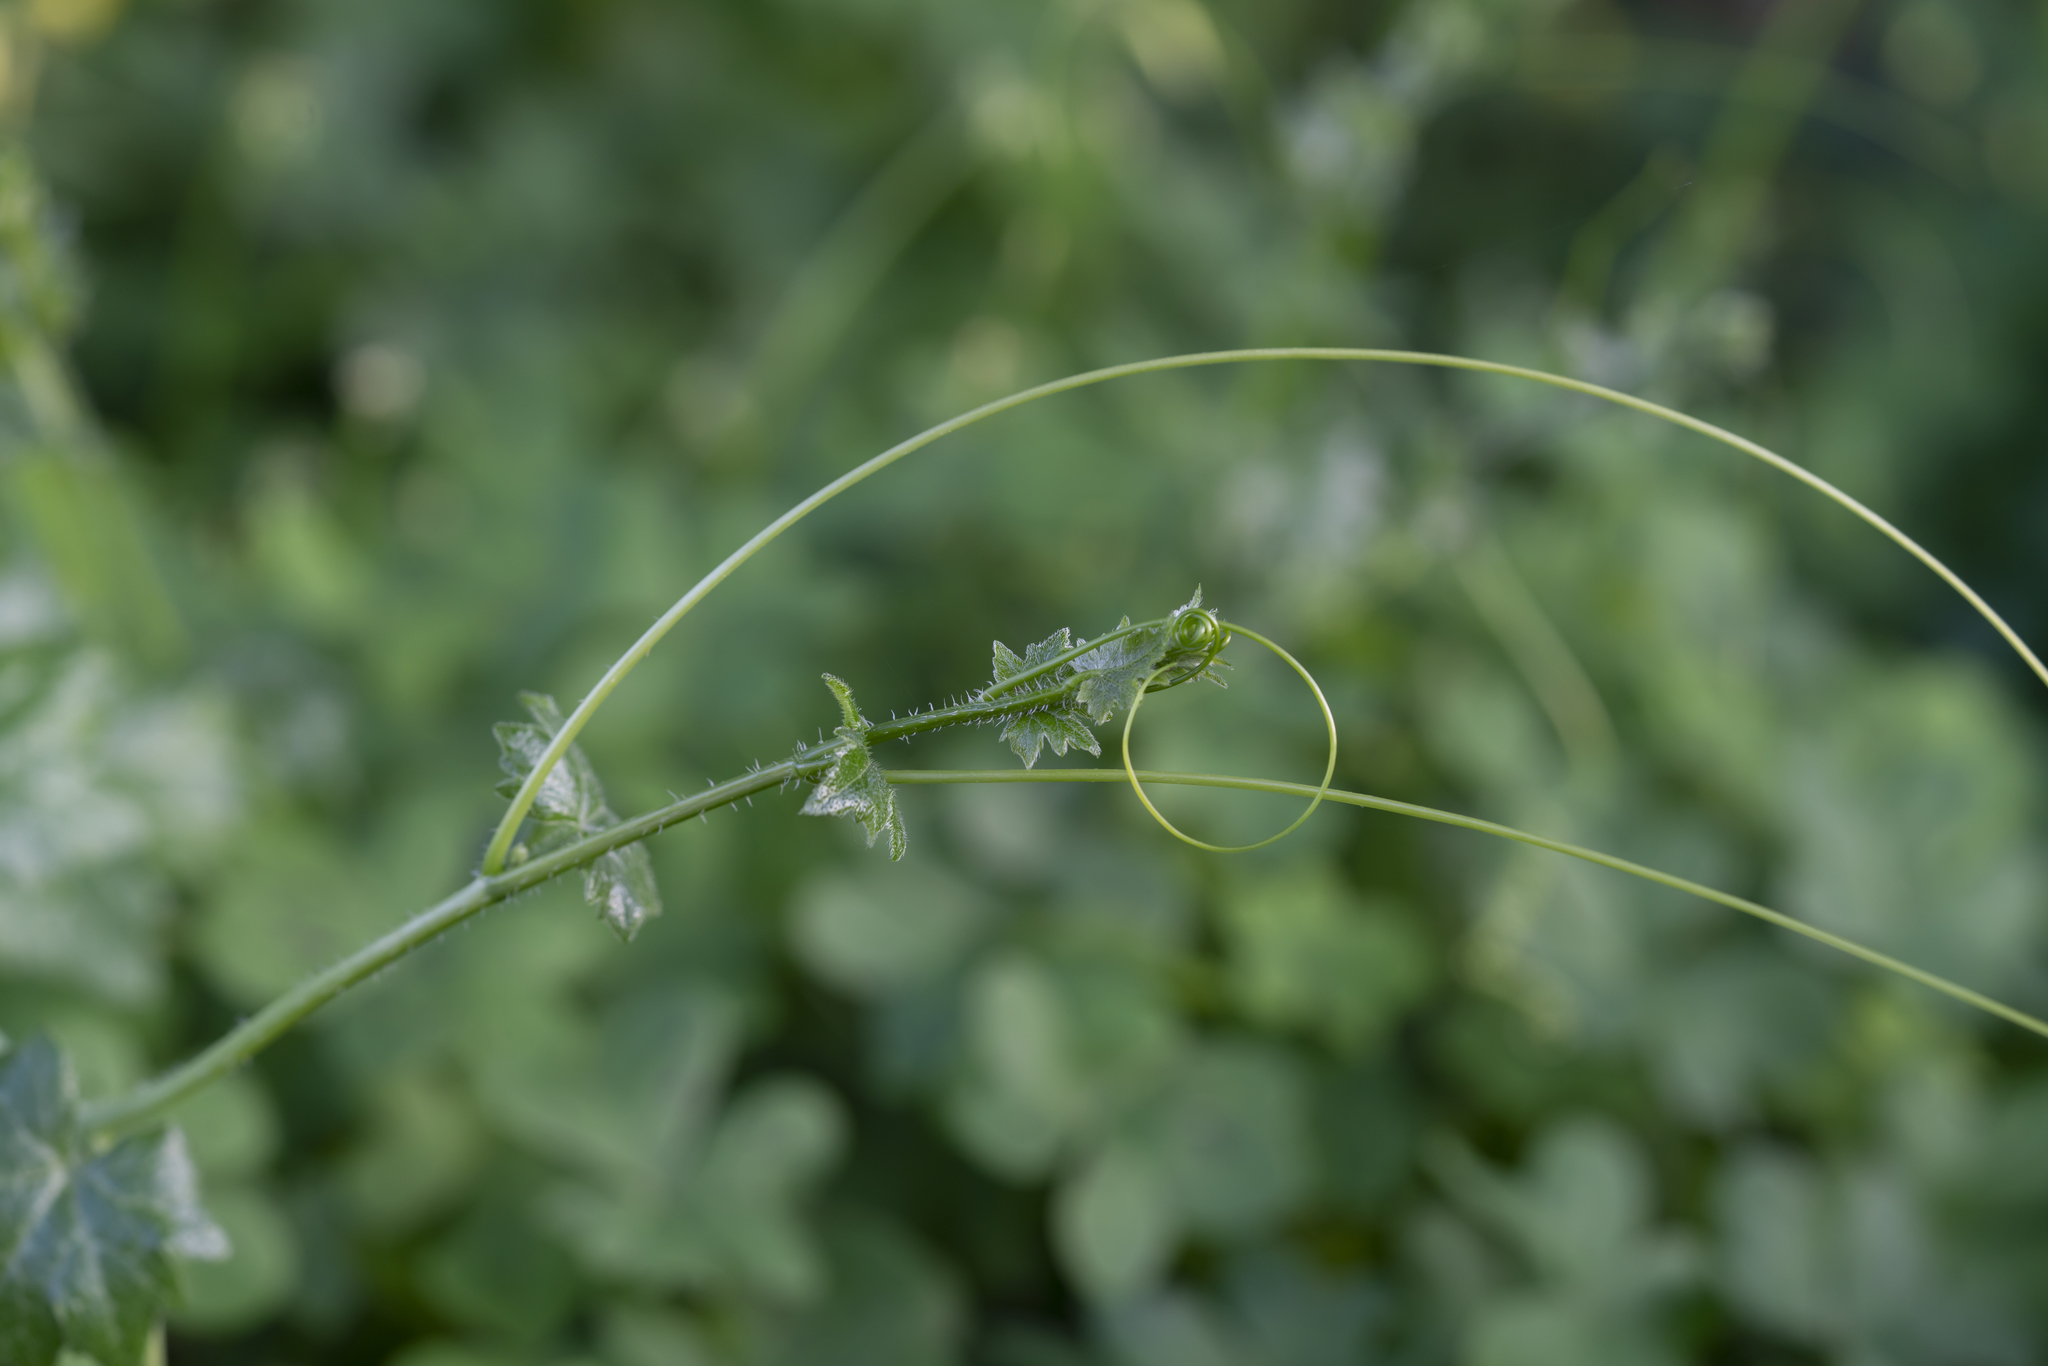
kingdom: Plantae
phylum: Tracheophyta
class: Magnoliopsida
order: Cucurbitales
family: Cucurbitaceae
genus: Bryonia
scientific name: Bryonia cretica
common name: Cretan bryony
